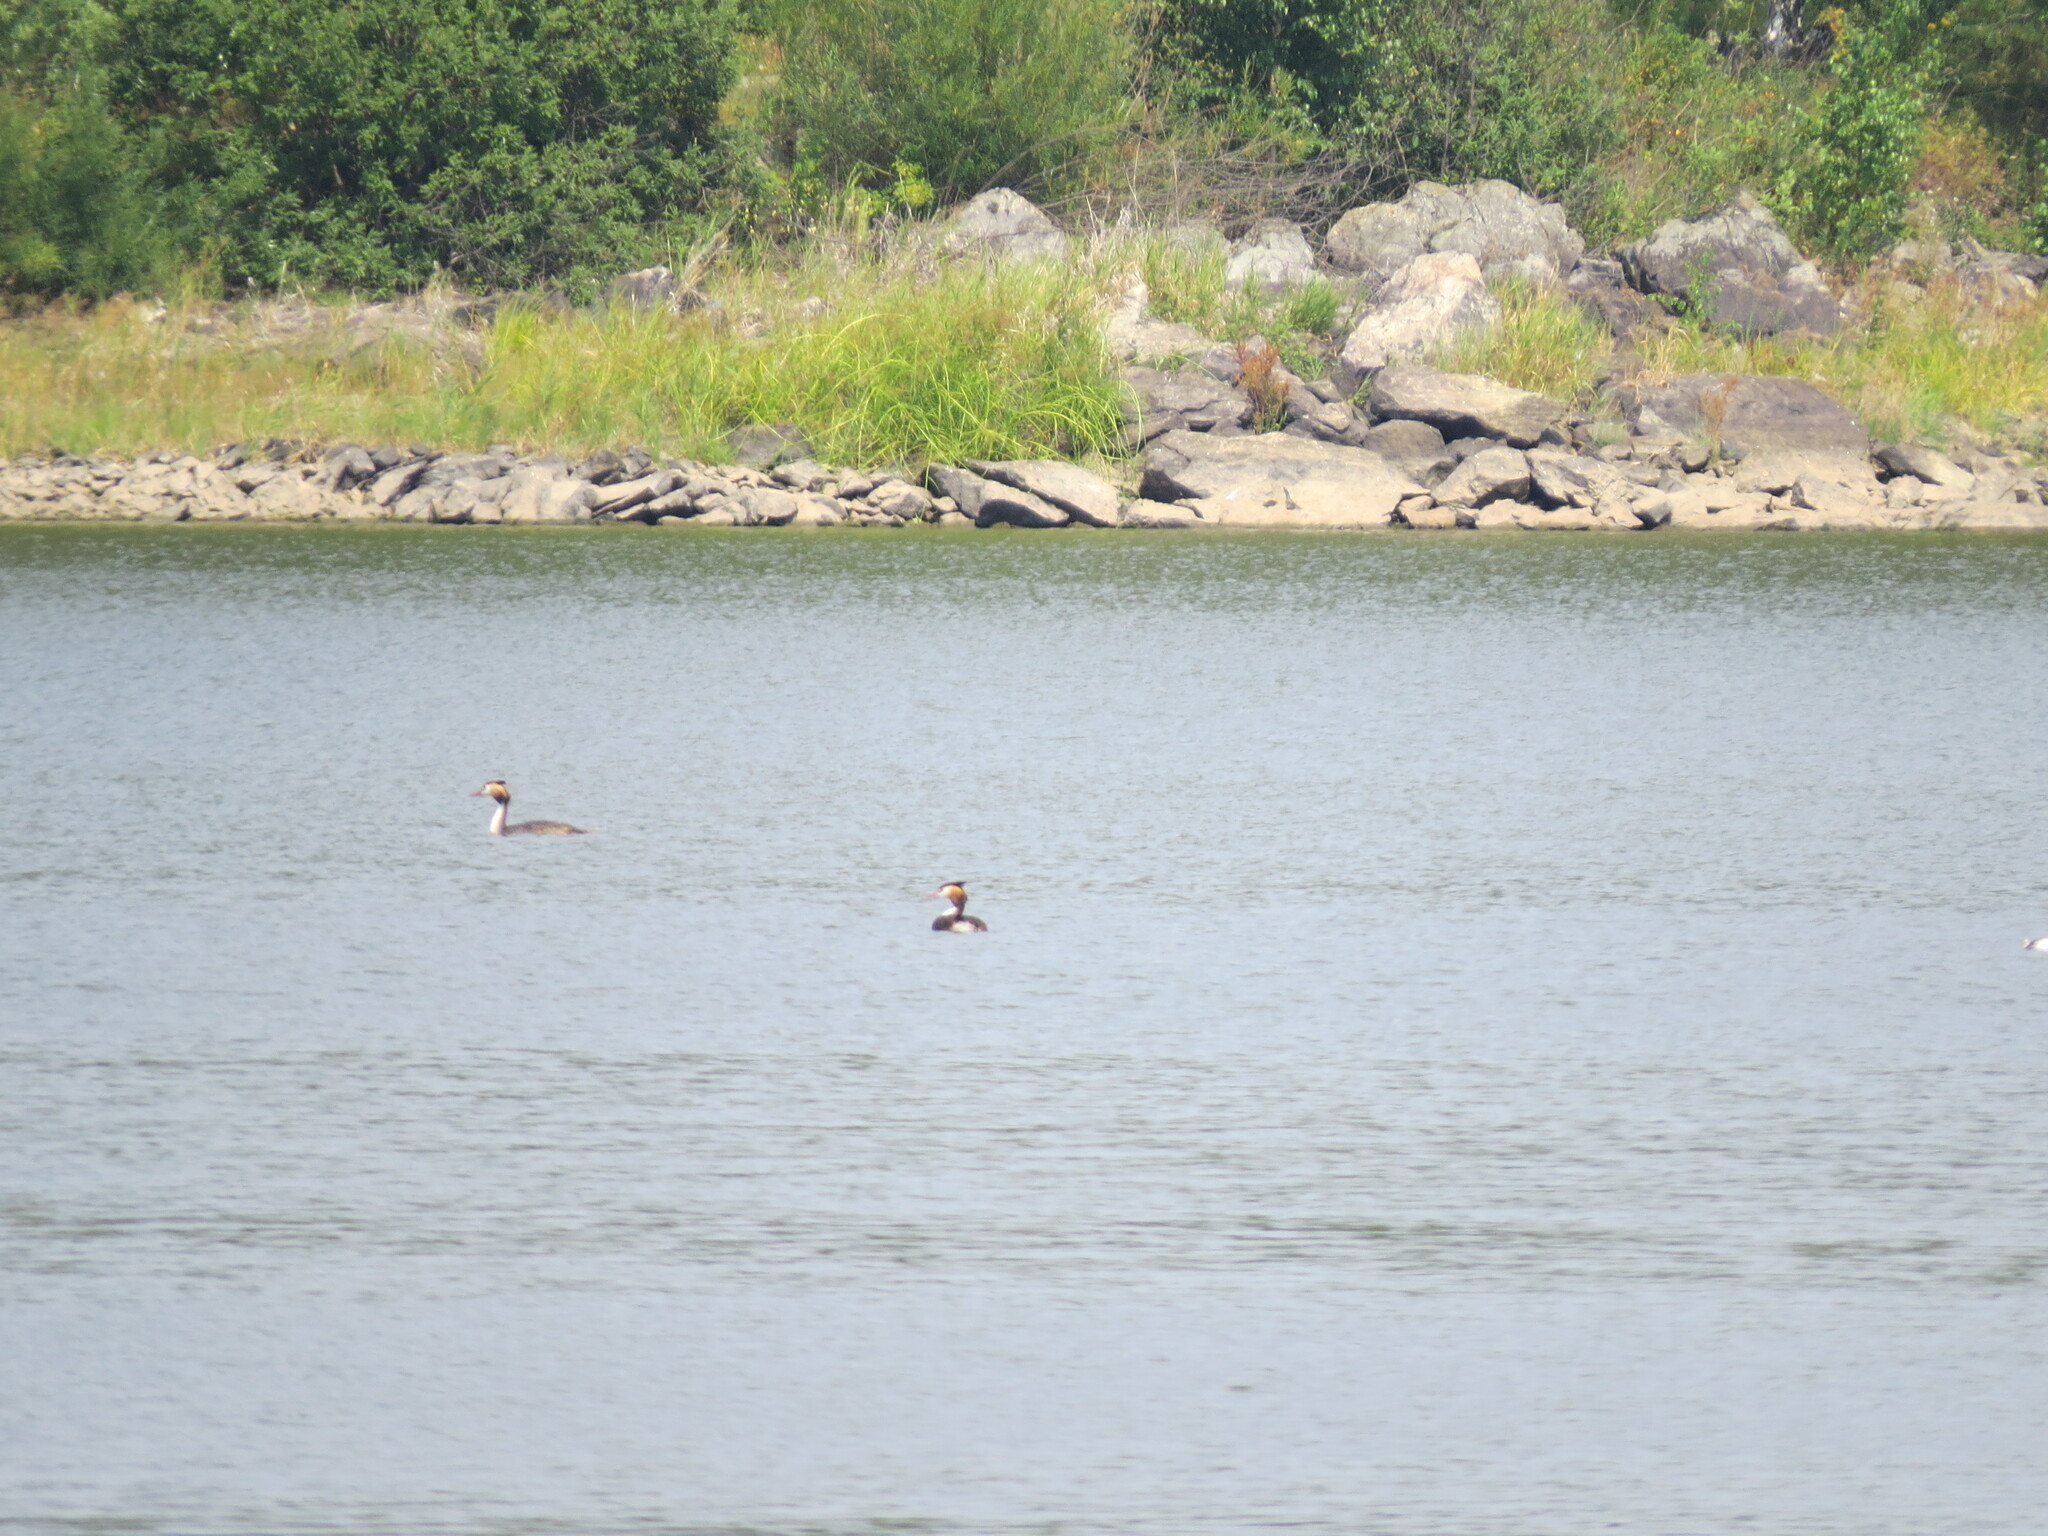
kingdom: Animalia
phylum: Chordata
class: Aves
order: Podicipediformes
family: Podicipedidae
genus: Podiceps
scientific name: Podiceps cristatus
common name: Great crested grebe
